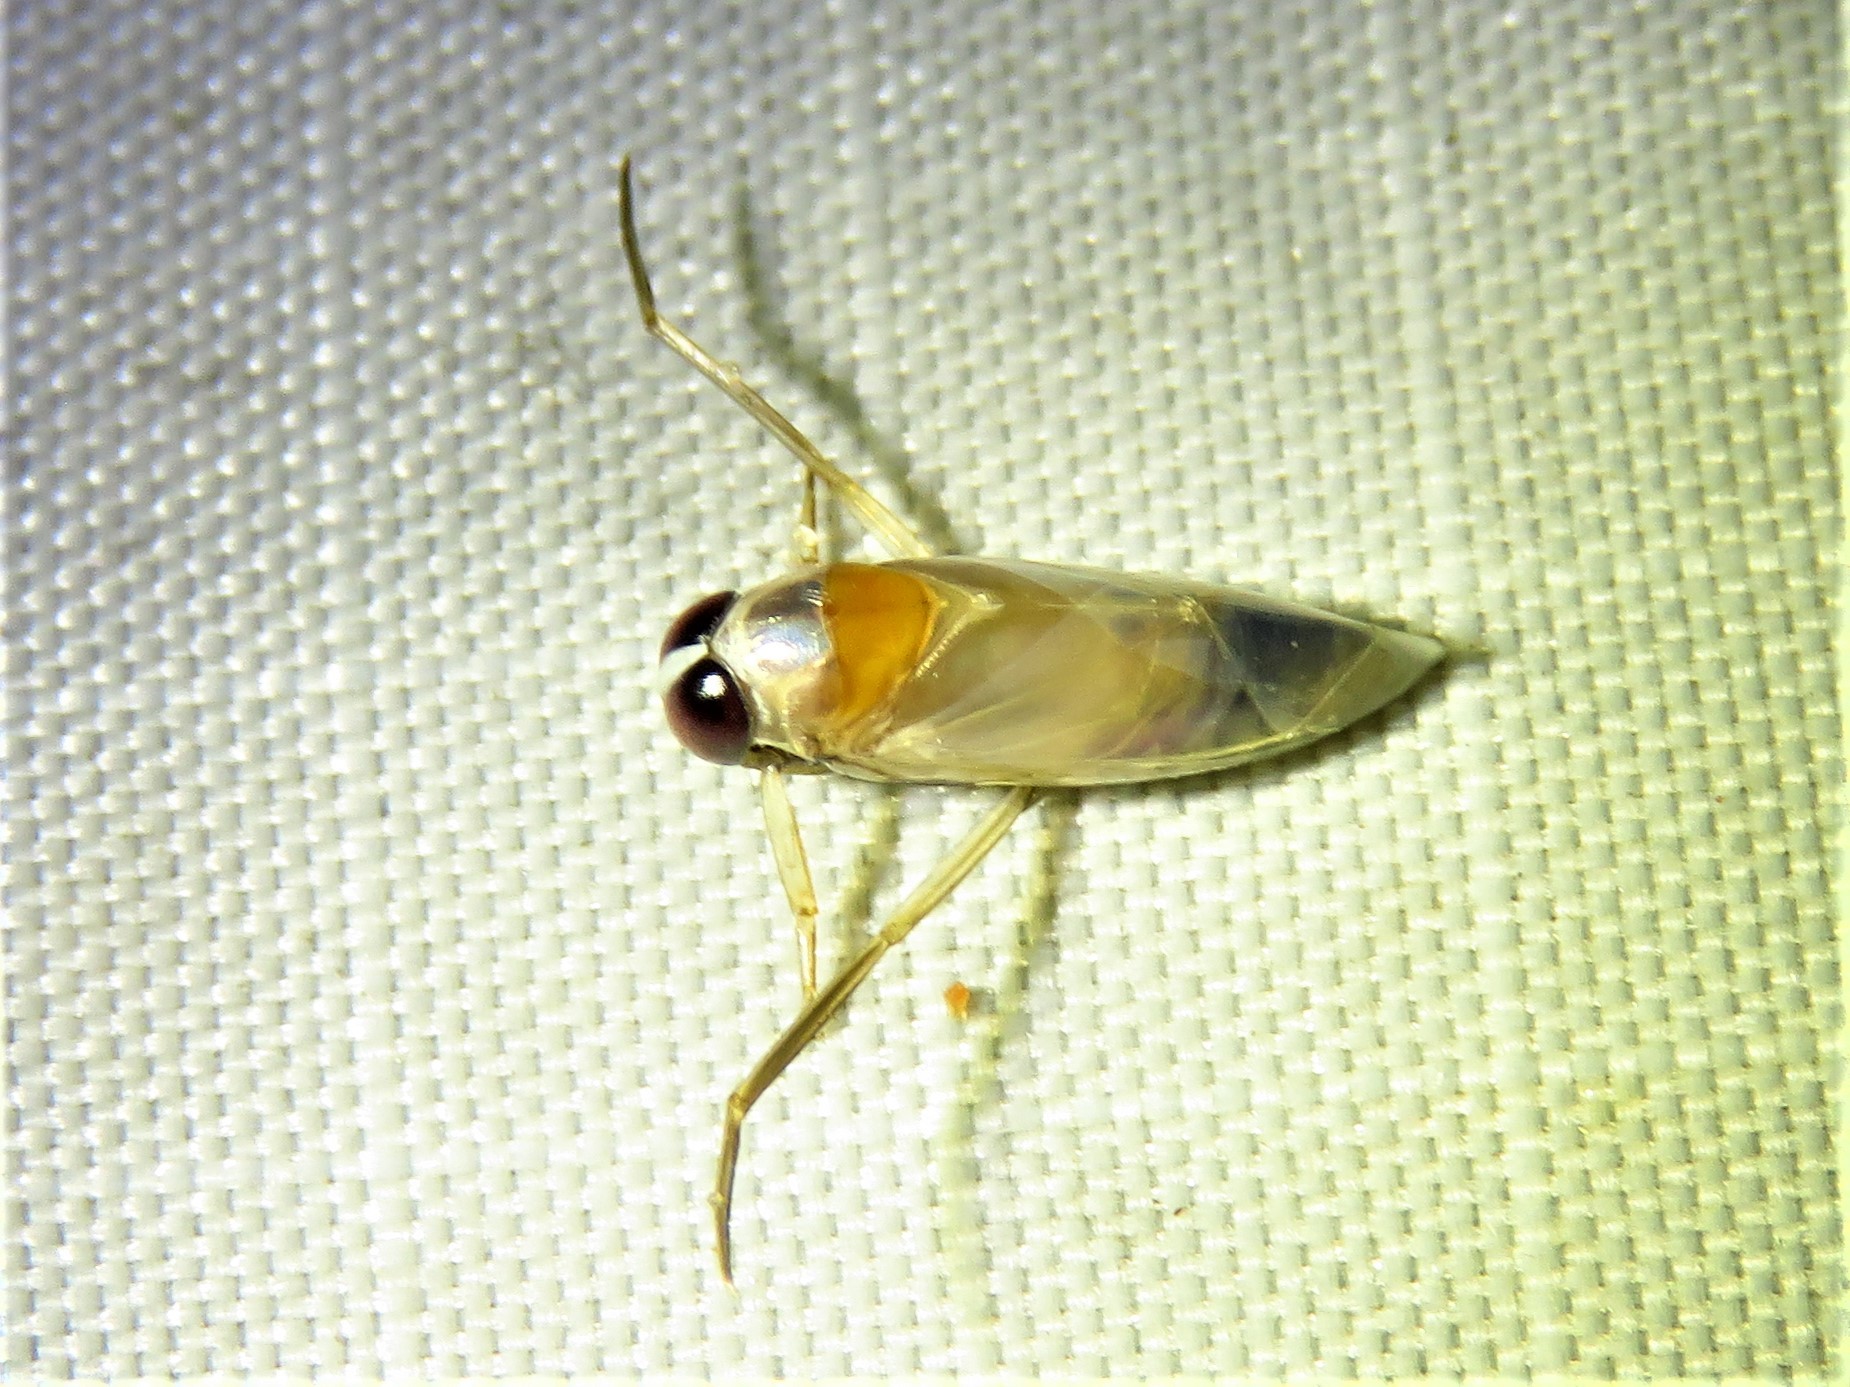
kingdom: Animalia
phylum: Arthropoda
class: Insecta
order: Hemiptera
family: Notonectidae
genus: Buenoa
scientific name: Buenoa
